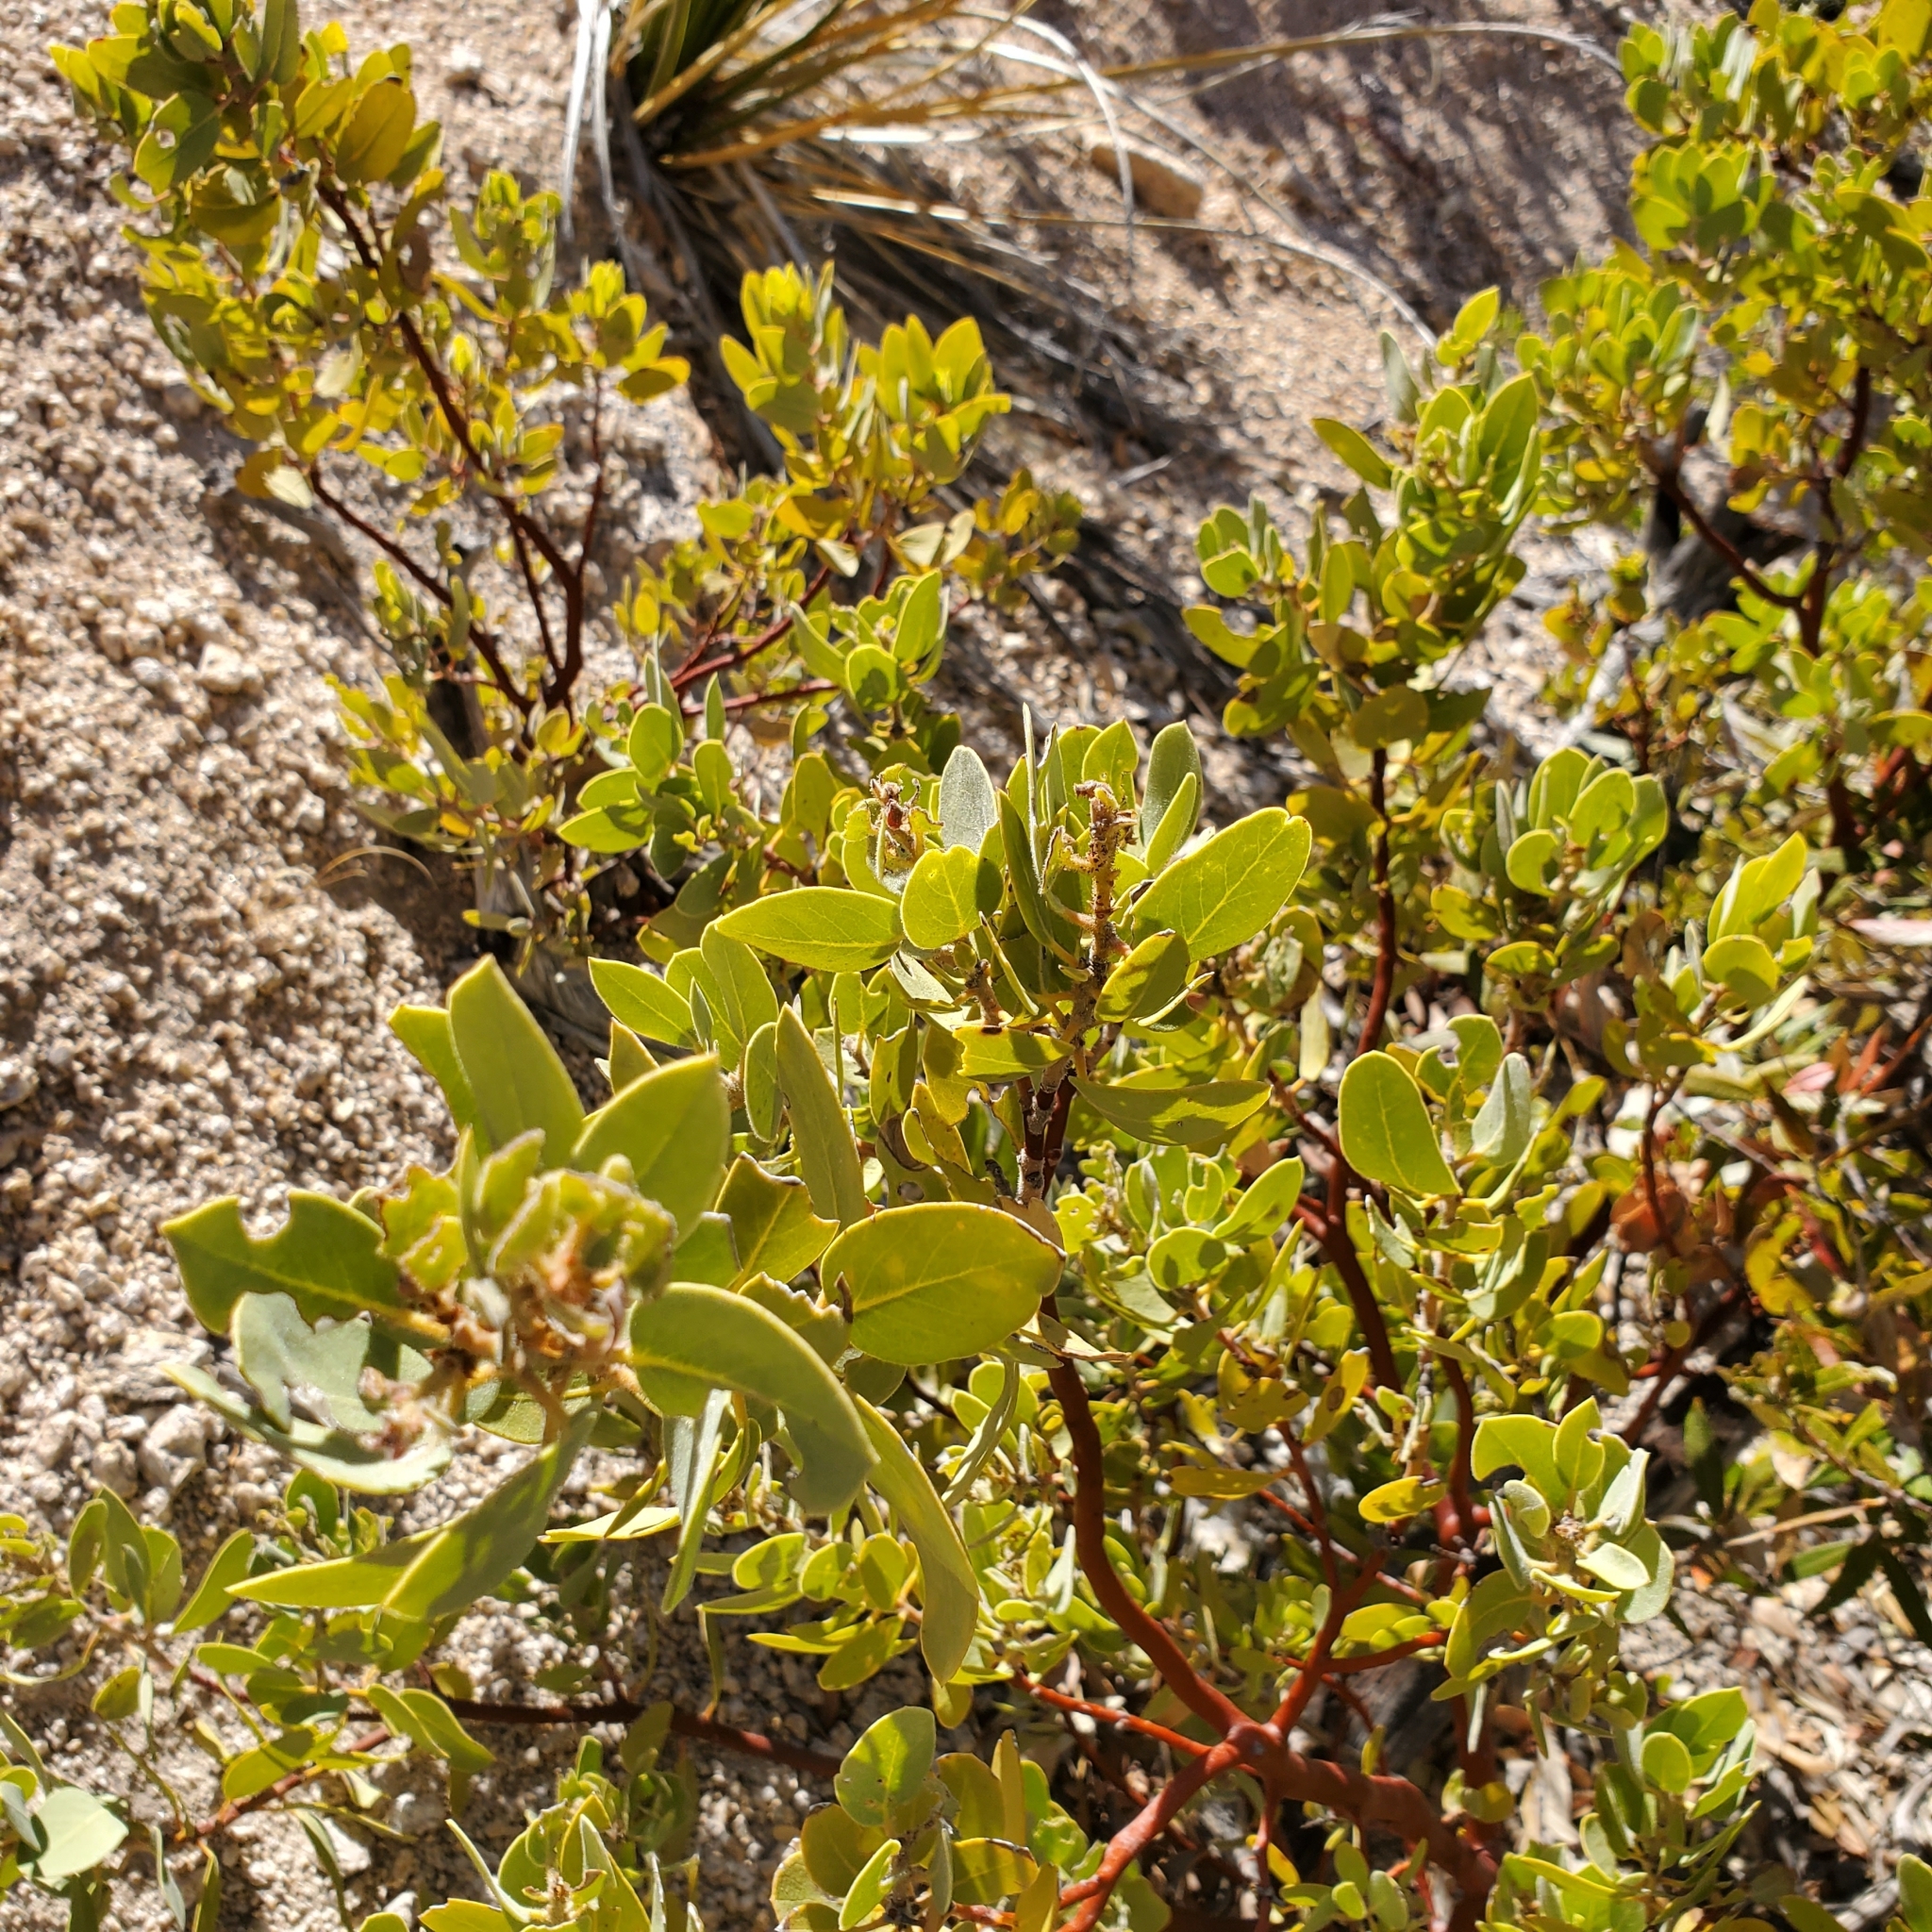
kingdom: Plantae
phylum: Tracheophyta
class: Magnoliopsida
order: Ericales
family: Ericaceae
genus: Arctostaphylos
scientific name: Arctostaphylos pringlei
